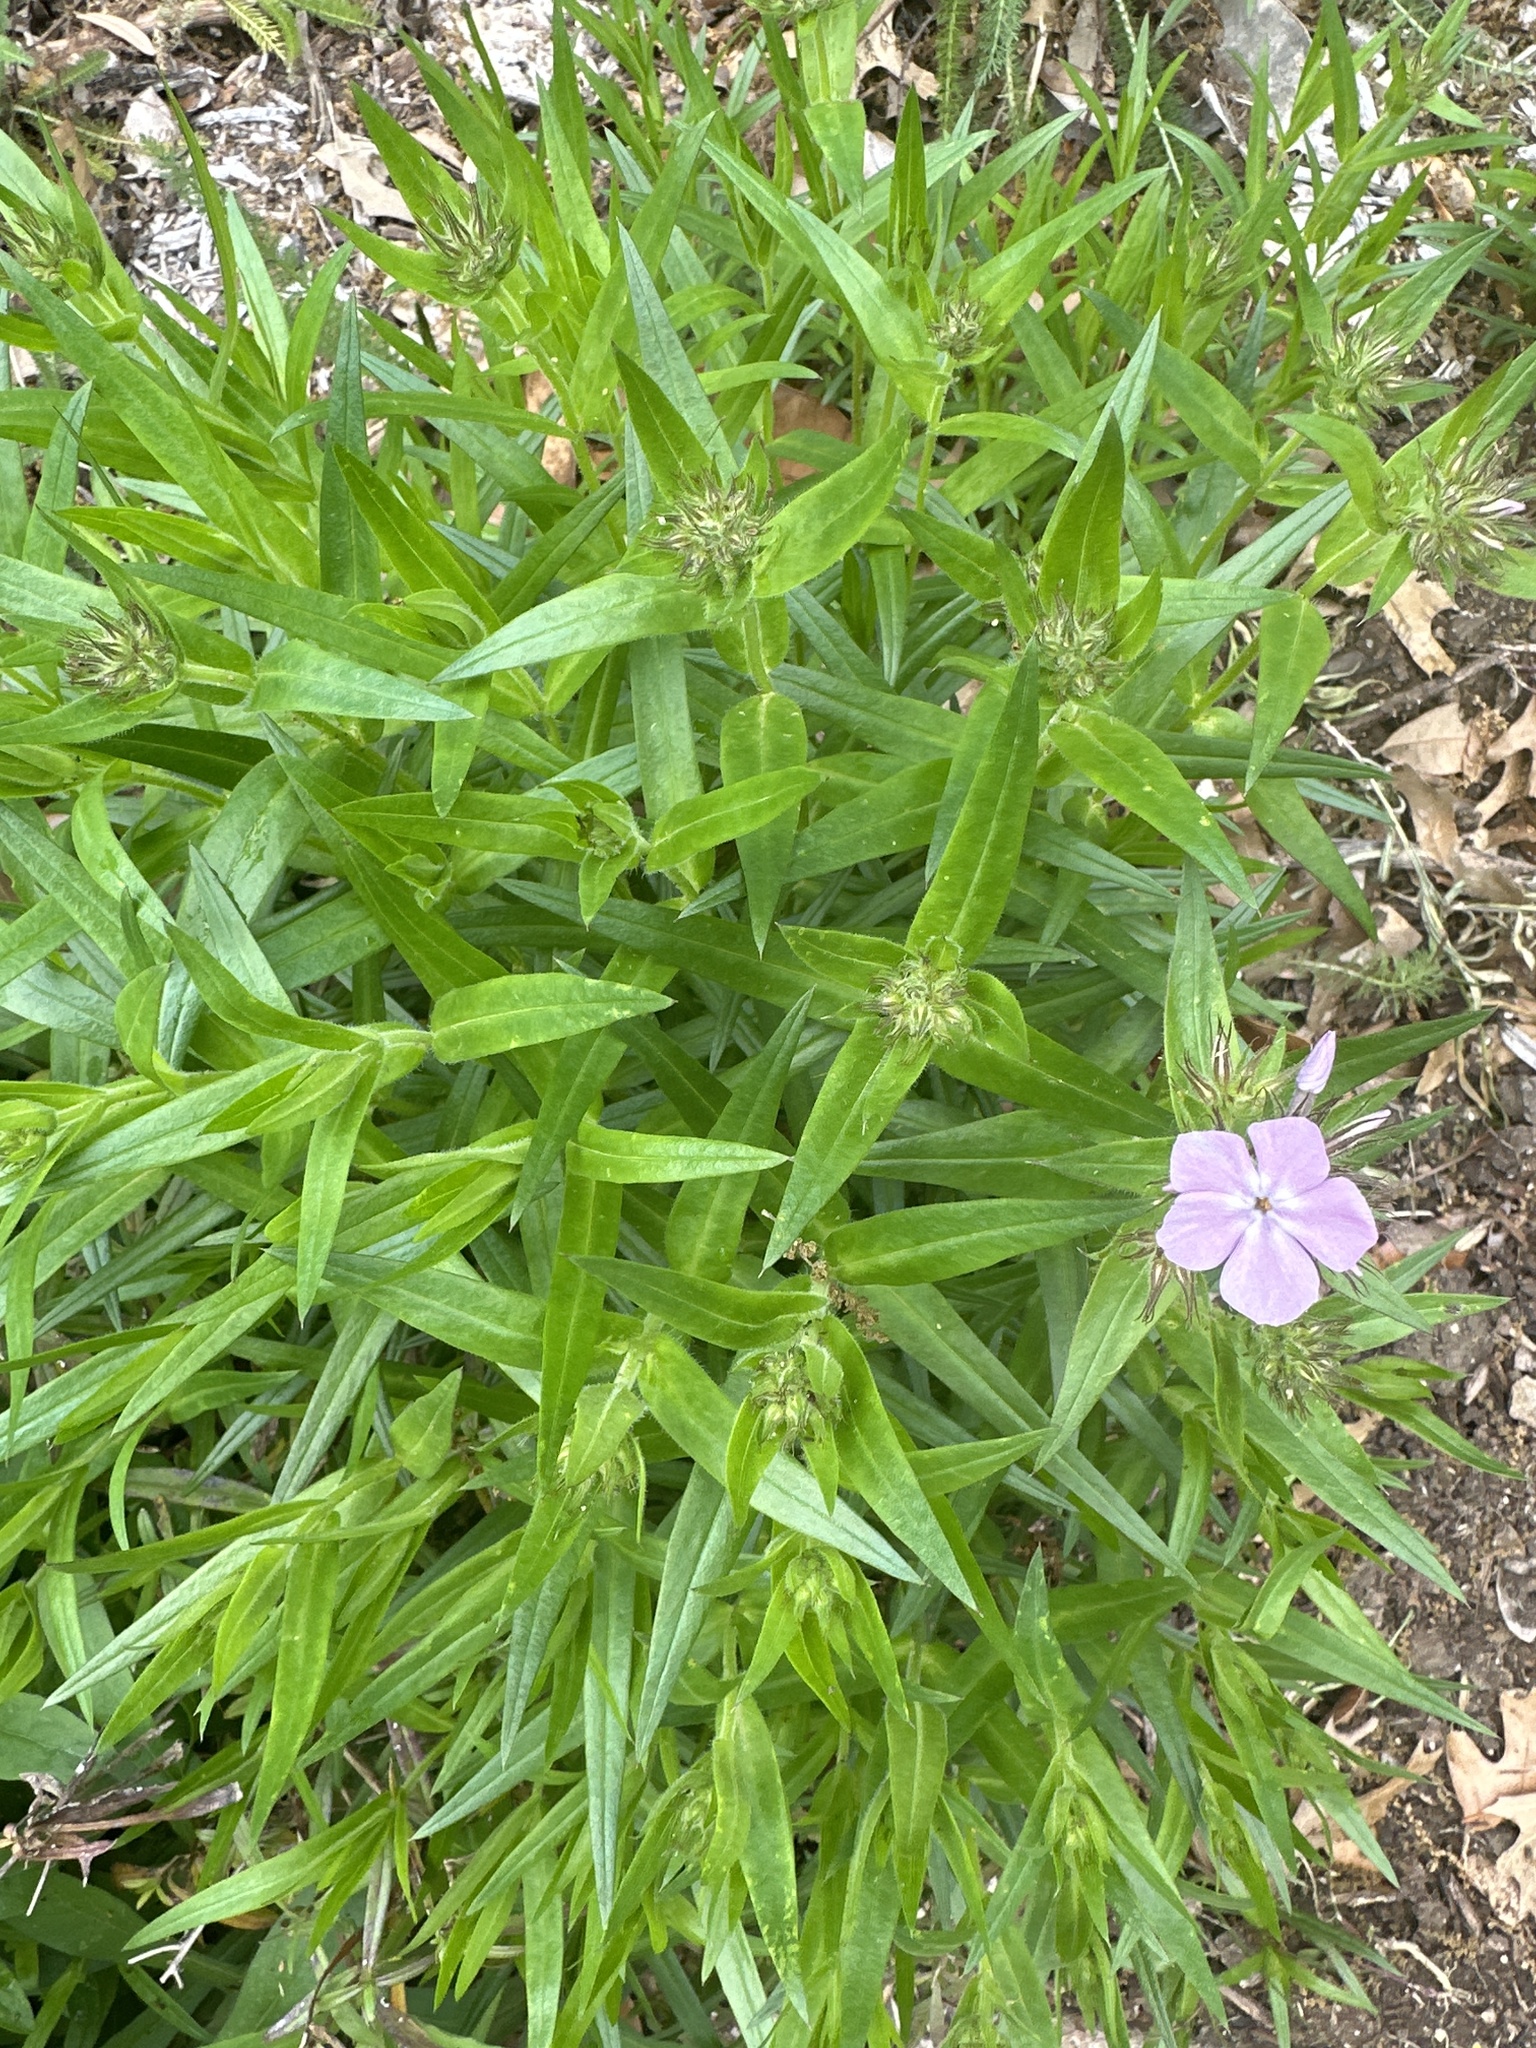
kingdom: Plantae
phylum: Tracheophyta
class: Magnoliopsida
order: Ericales
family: Polemoniaceae
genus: Phlox
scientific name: Phlox pilosa
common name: Prairie phlox
